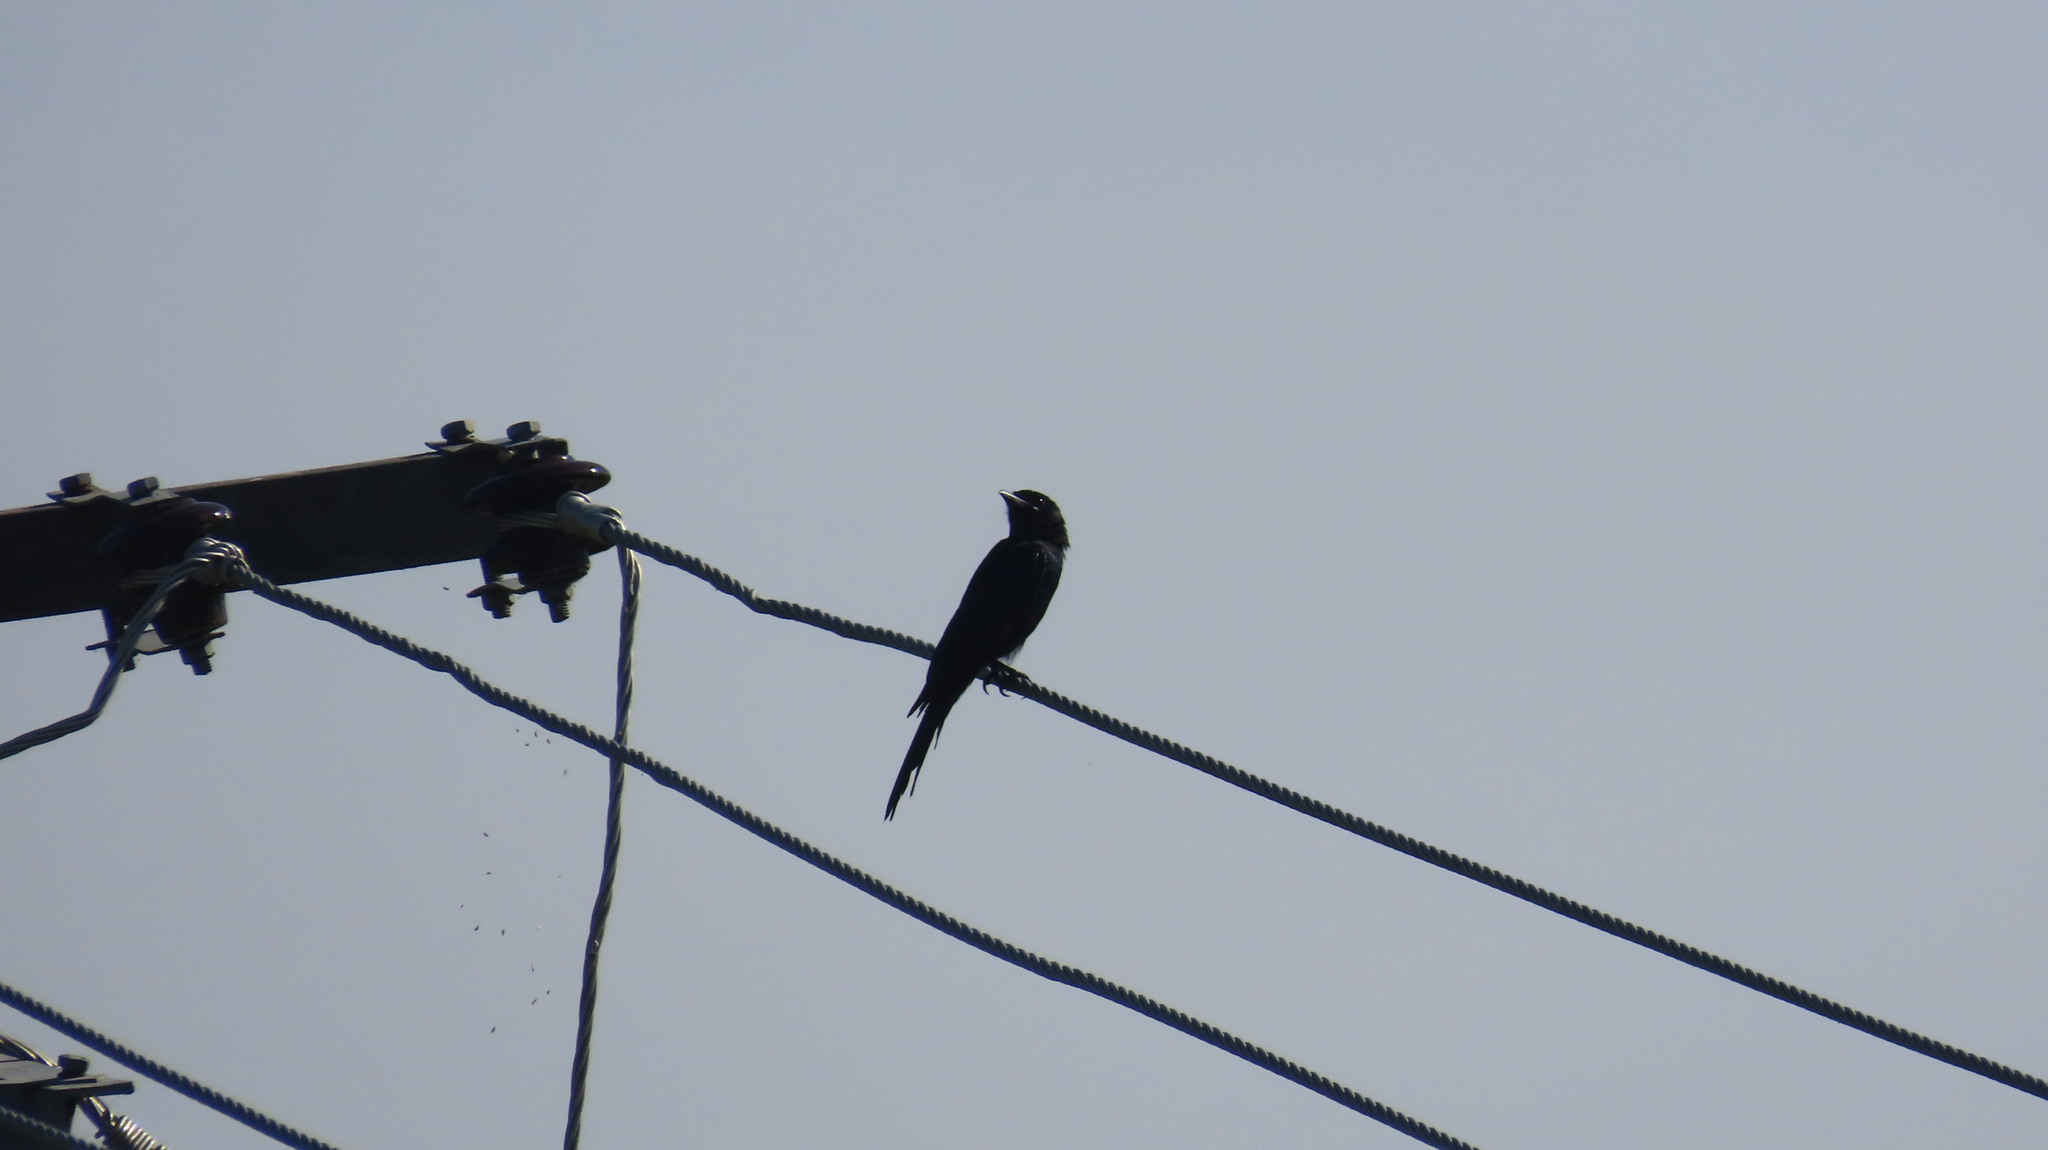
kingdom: Animalia
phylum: Chordata
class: Aves
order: Passeriformes
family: Dicruridae
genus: Dicrurus
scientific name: Dicrurus macrocercus
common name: Black drongo
